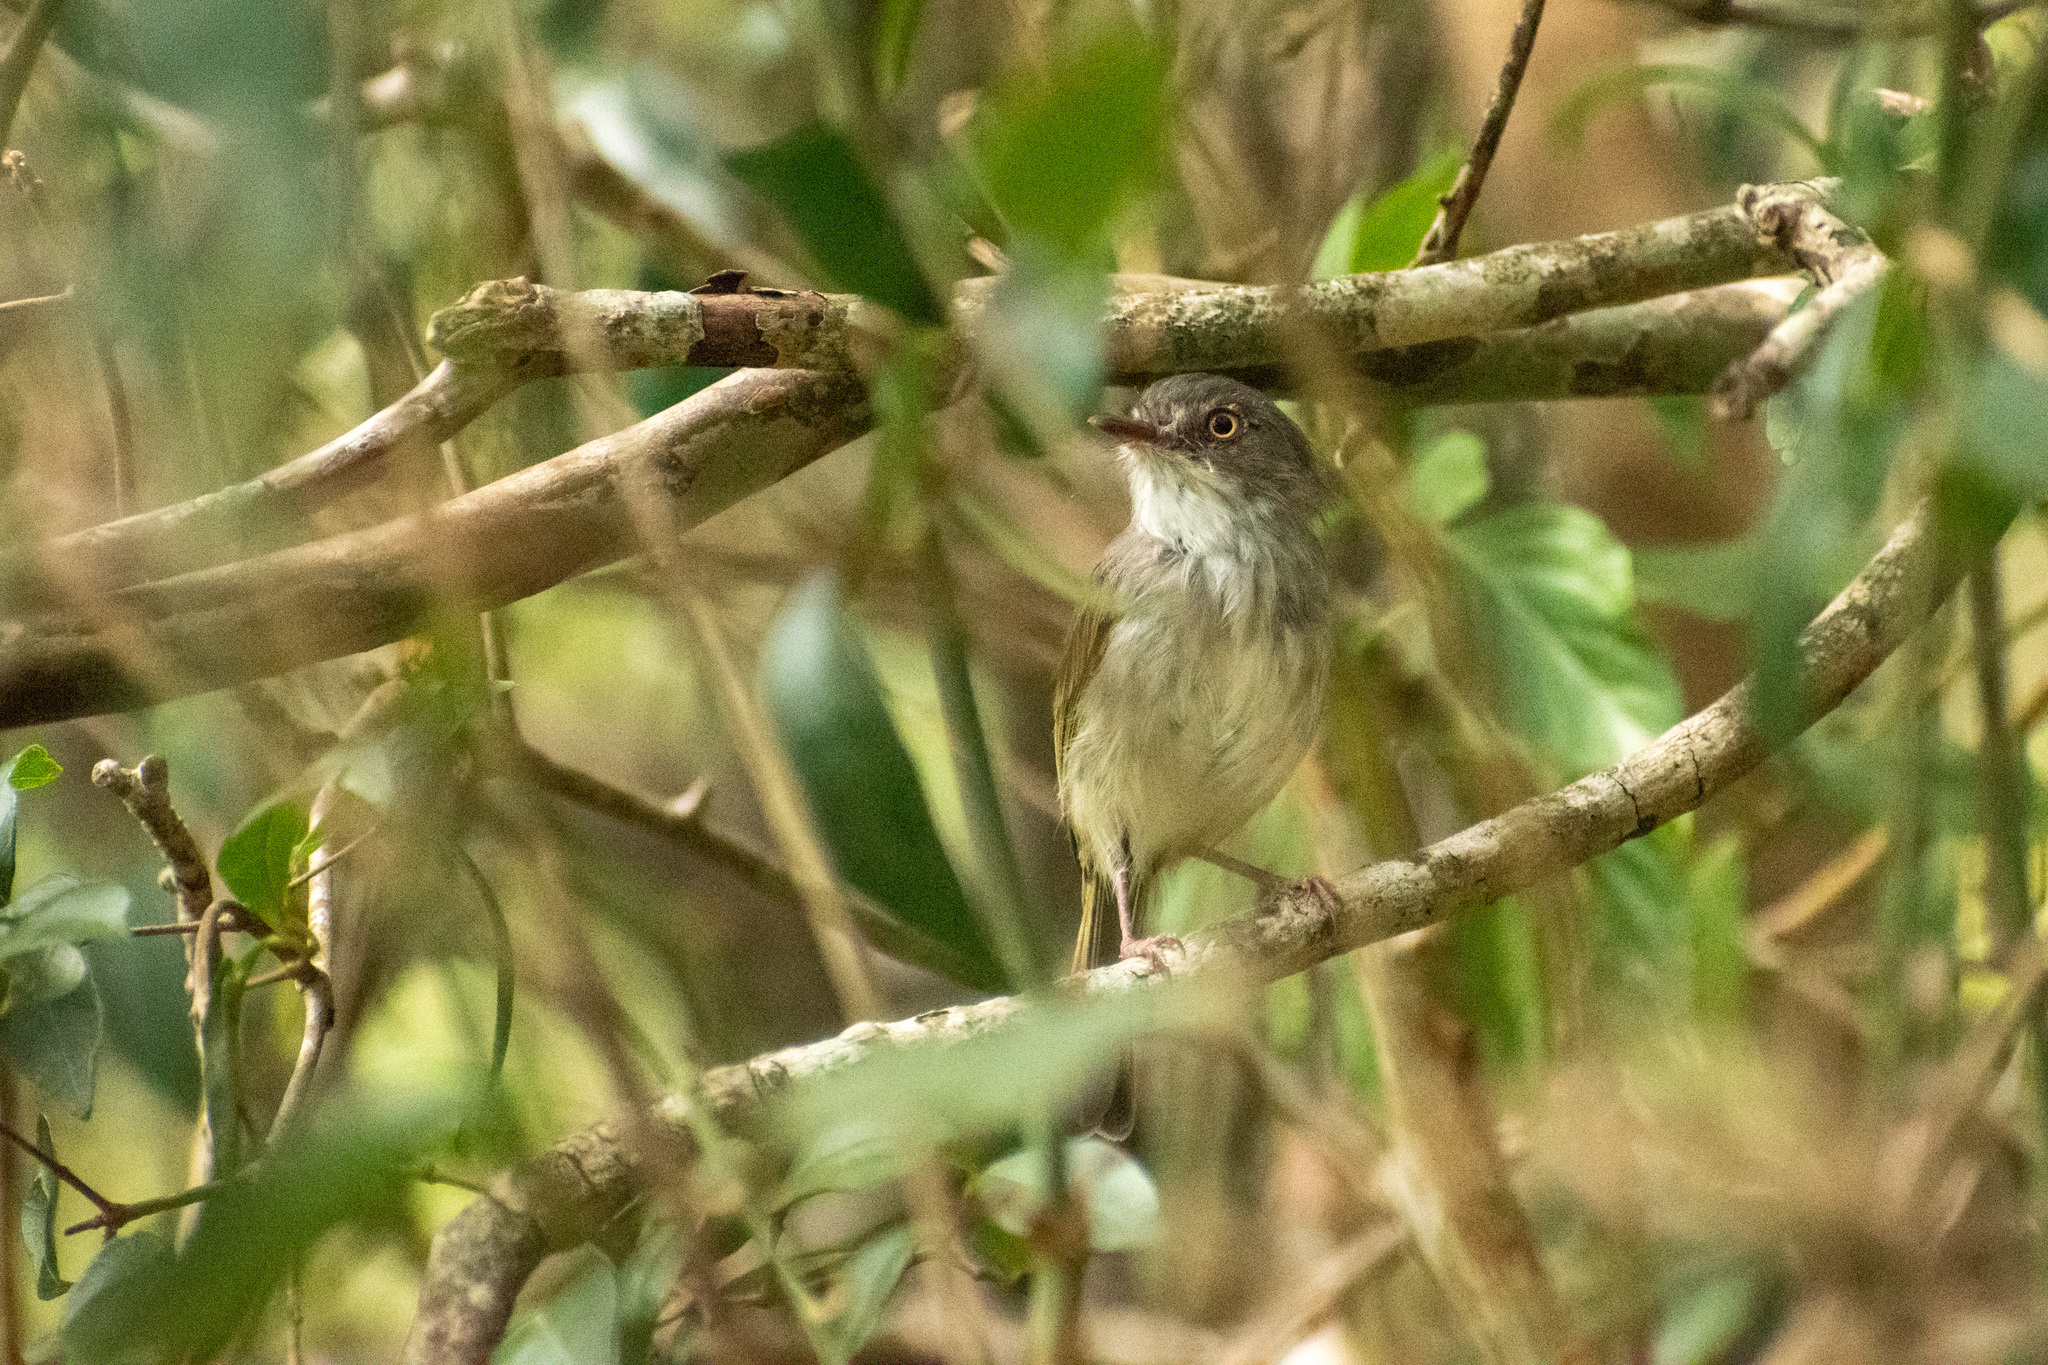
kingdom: Animalia
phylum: Chordata
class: Aves
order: Passeriformes
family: Tyrannidae
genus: Hemitriccus
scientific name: Hemitriccus margaritaceiventer
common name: Pearly-vented tody-tyrant
